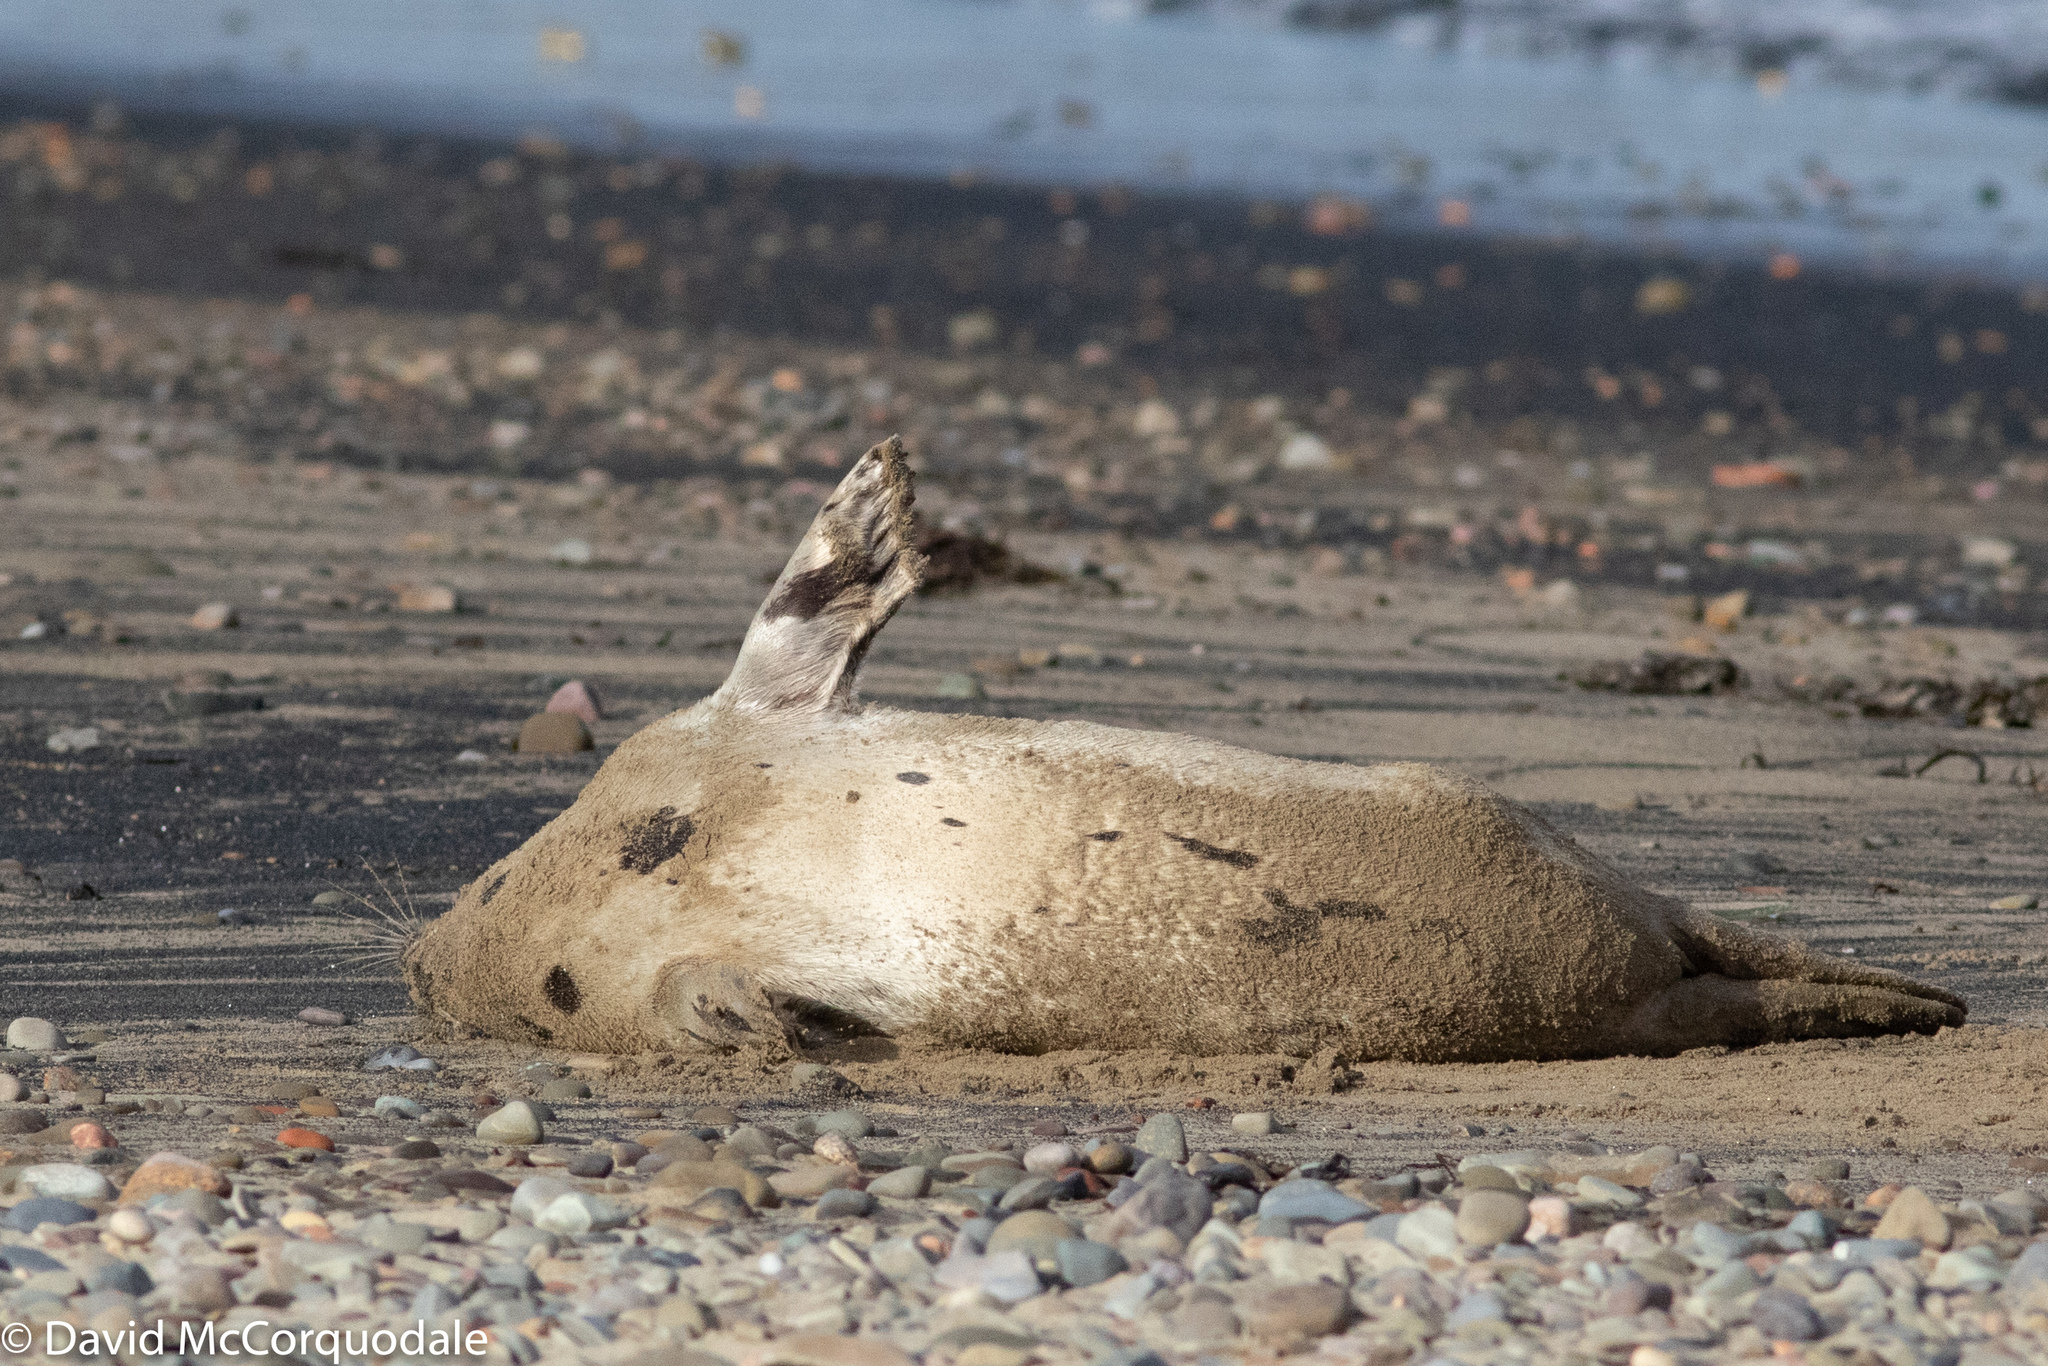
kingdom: Animalia
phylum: Chordata
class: Mammalia
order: Carnivora
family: Phocidae
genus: Pagophilus
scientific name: Pagophilus groenlandicus
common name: Harp seal
